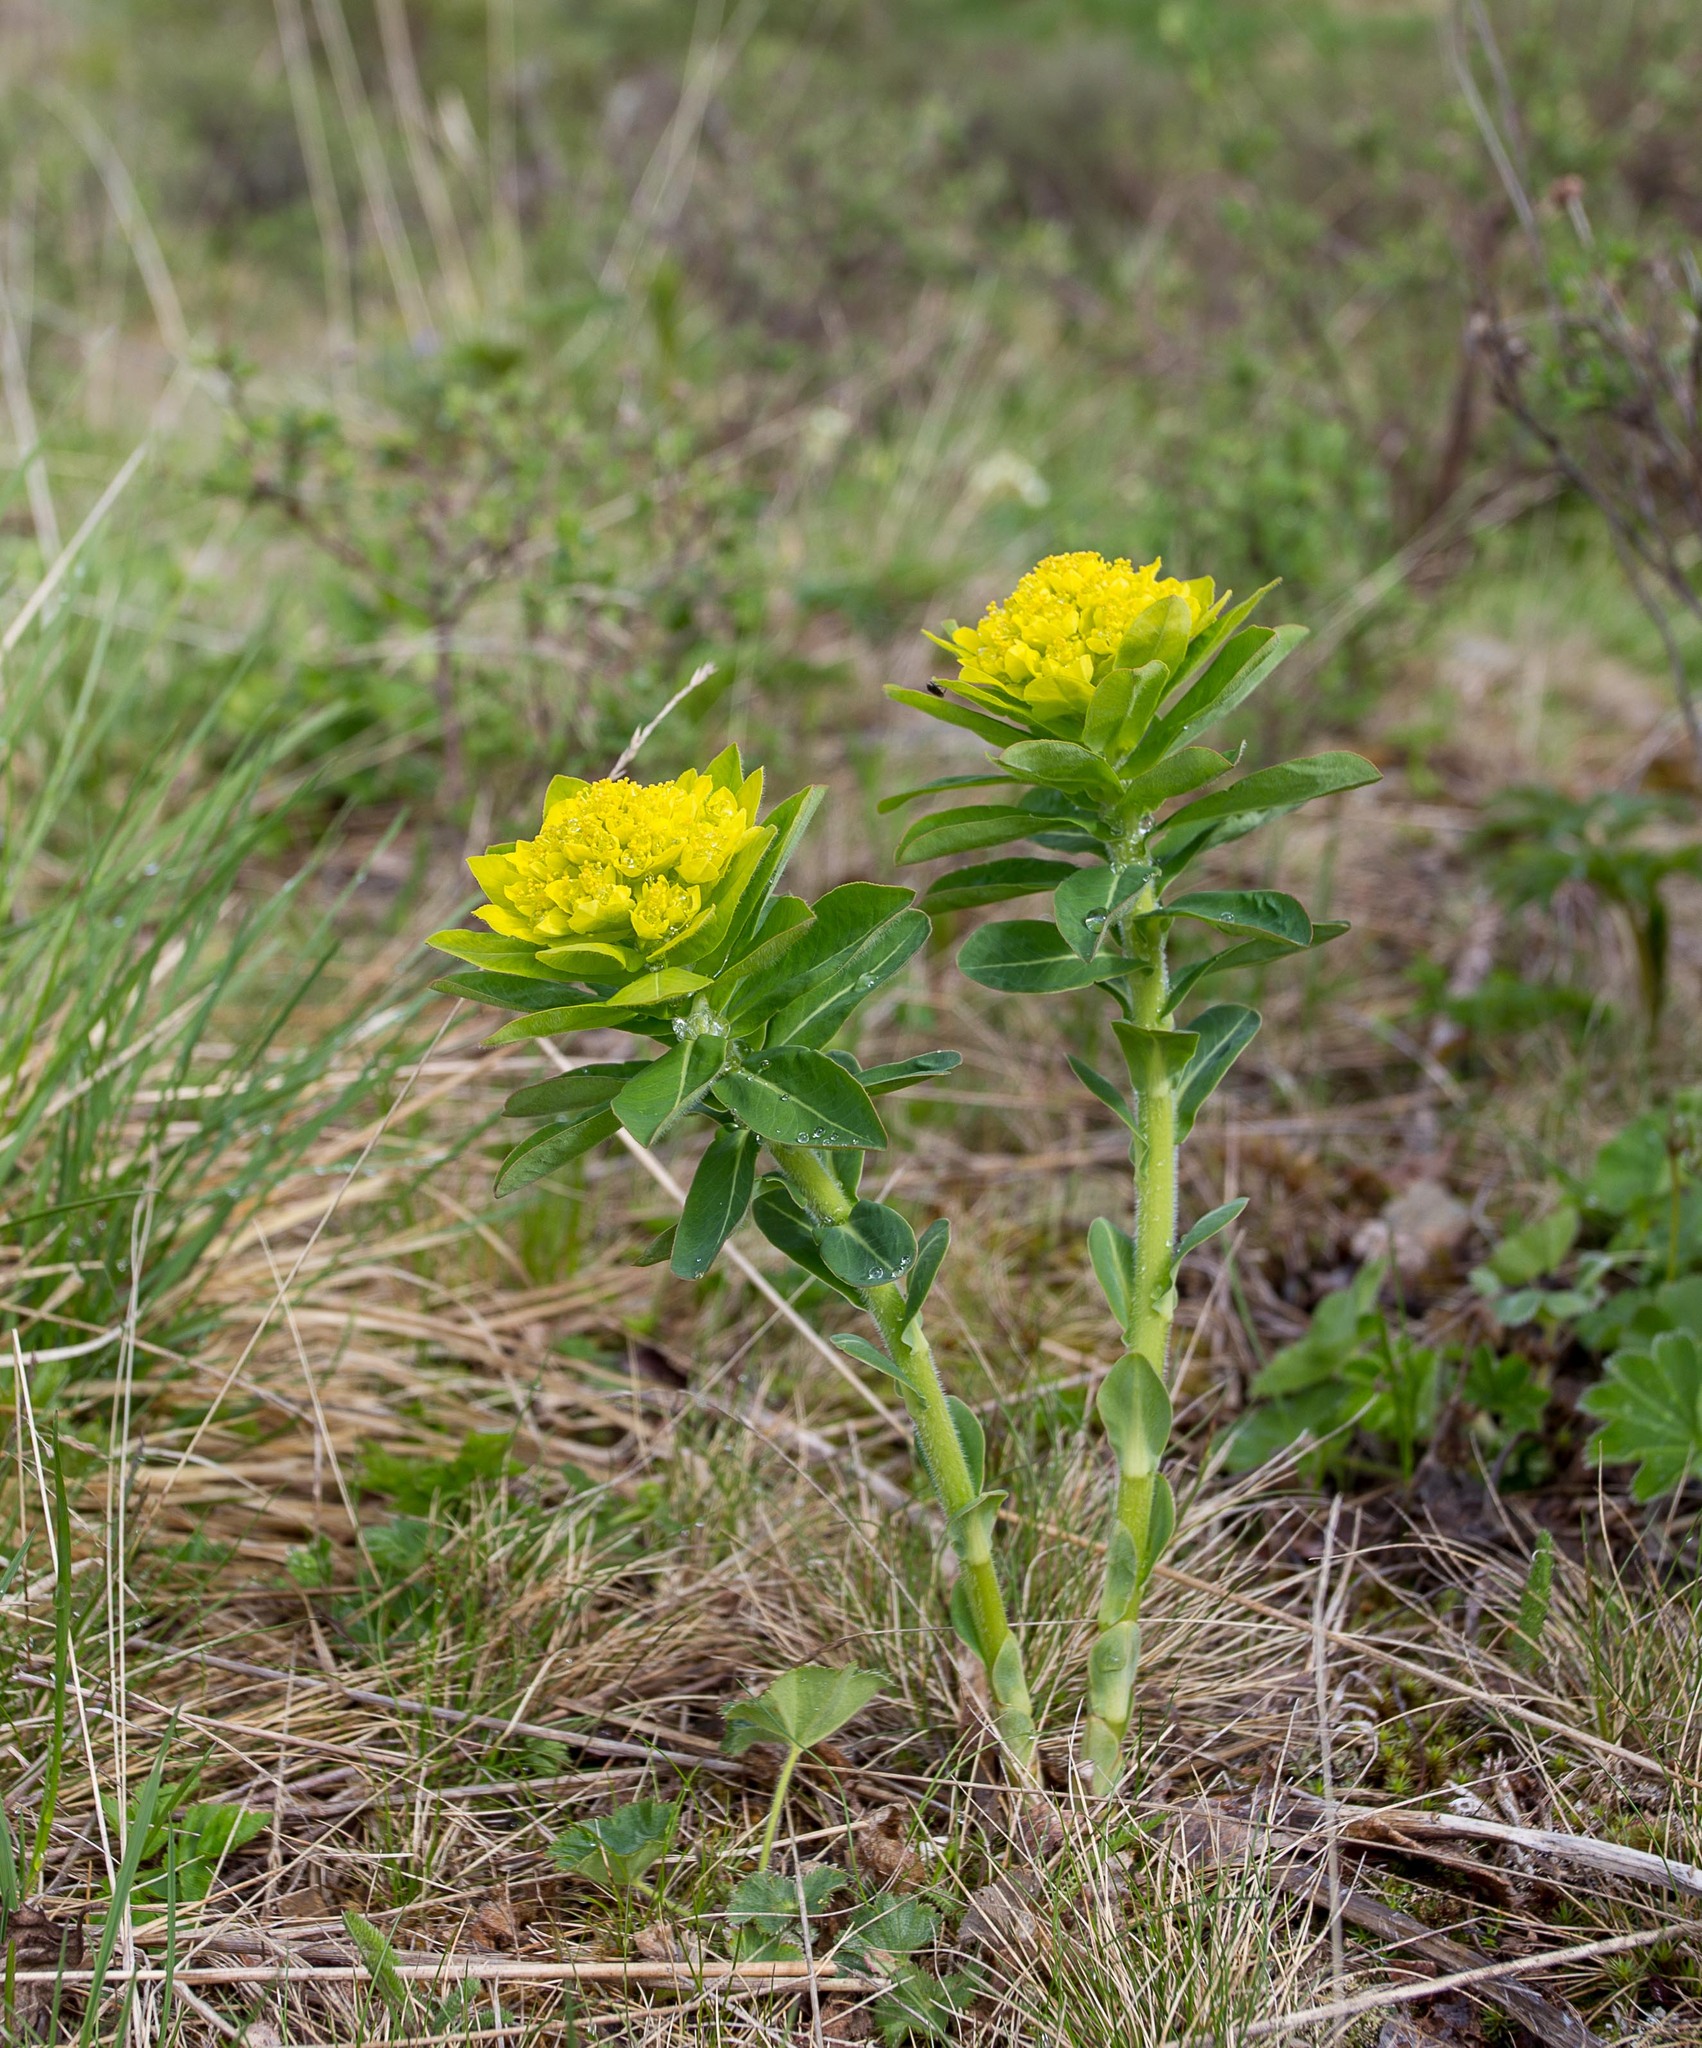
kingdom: Plantae
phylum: Tracheophyta
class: Magnoliopsida
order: Malpighiales
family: Euphorbiaceae
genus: Euphorbia
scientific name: Euphorbia pilosa
